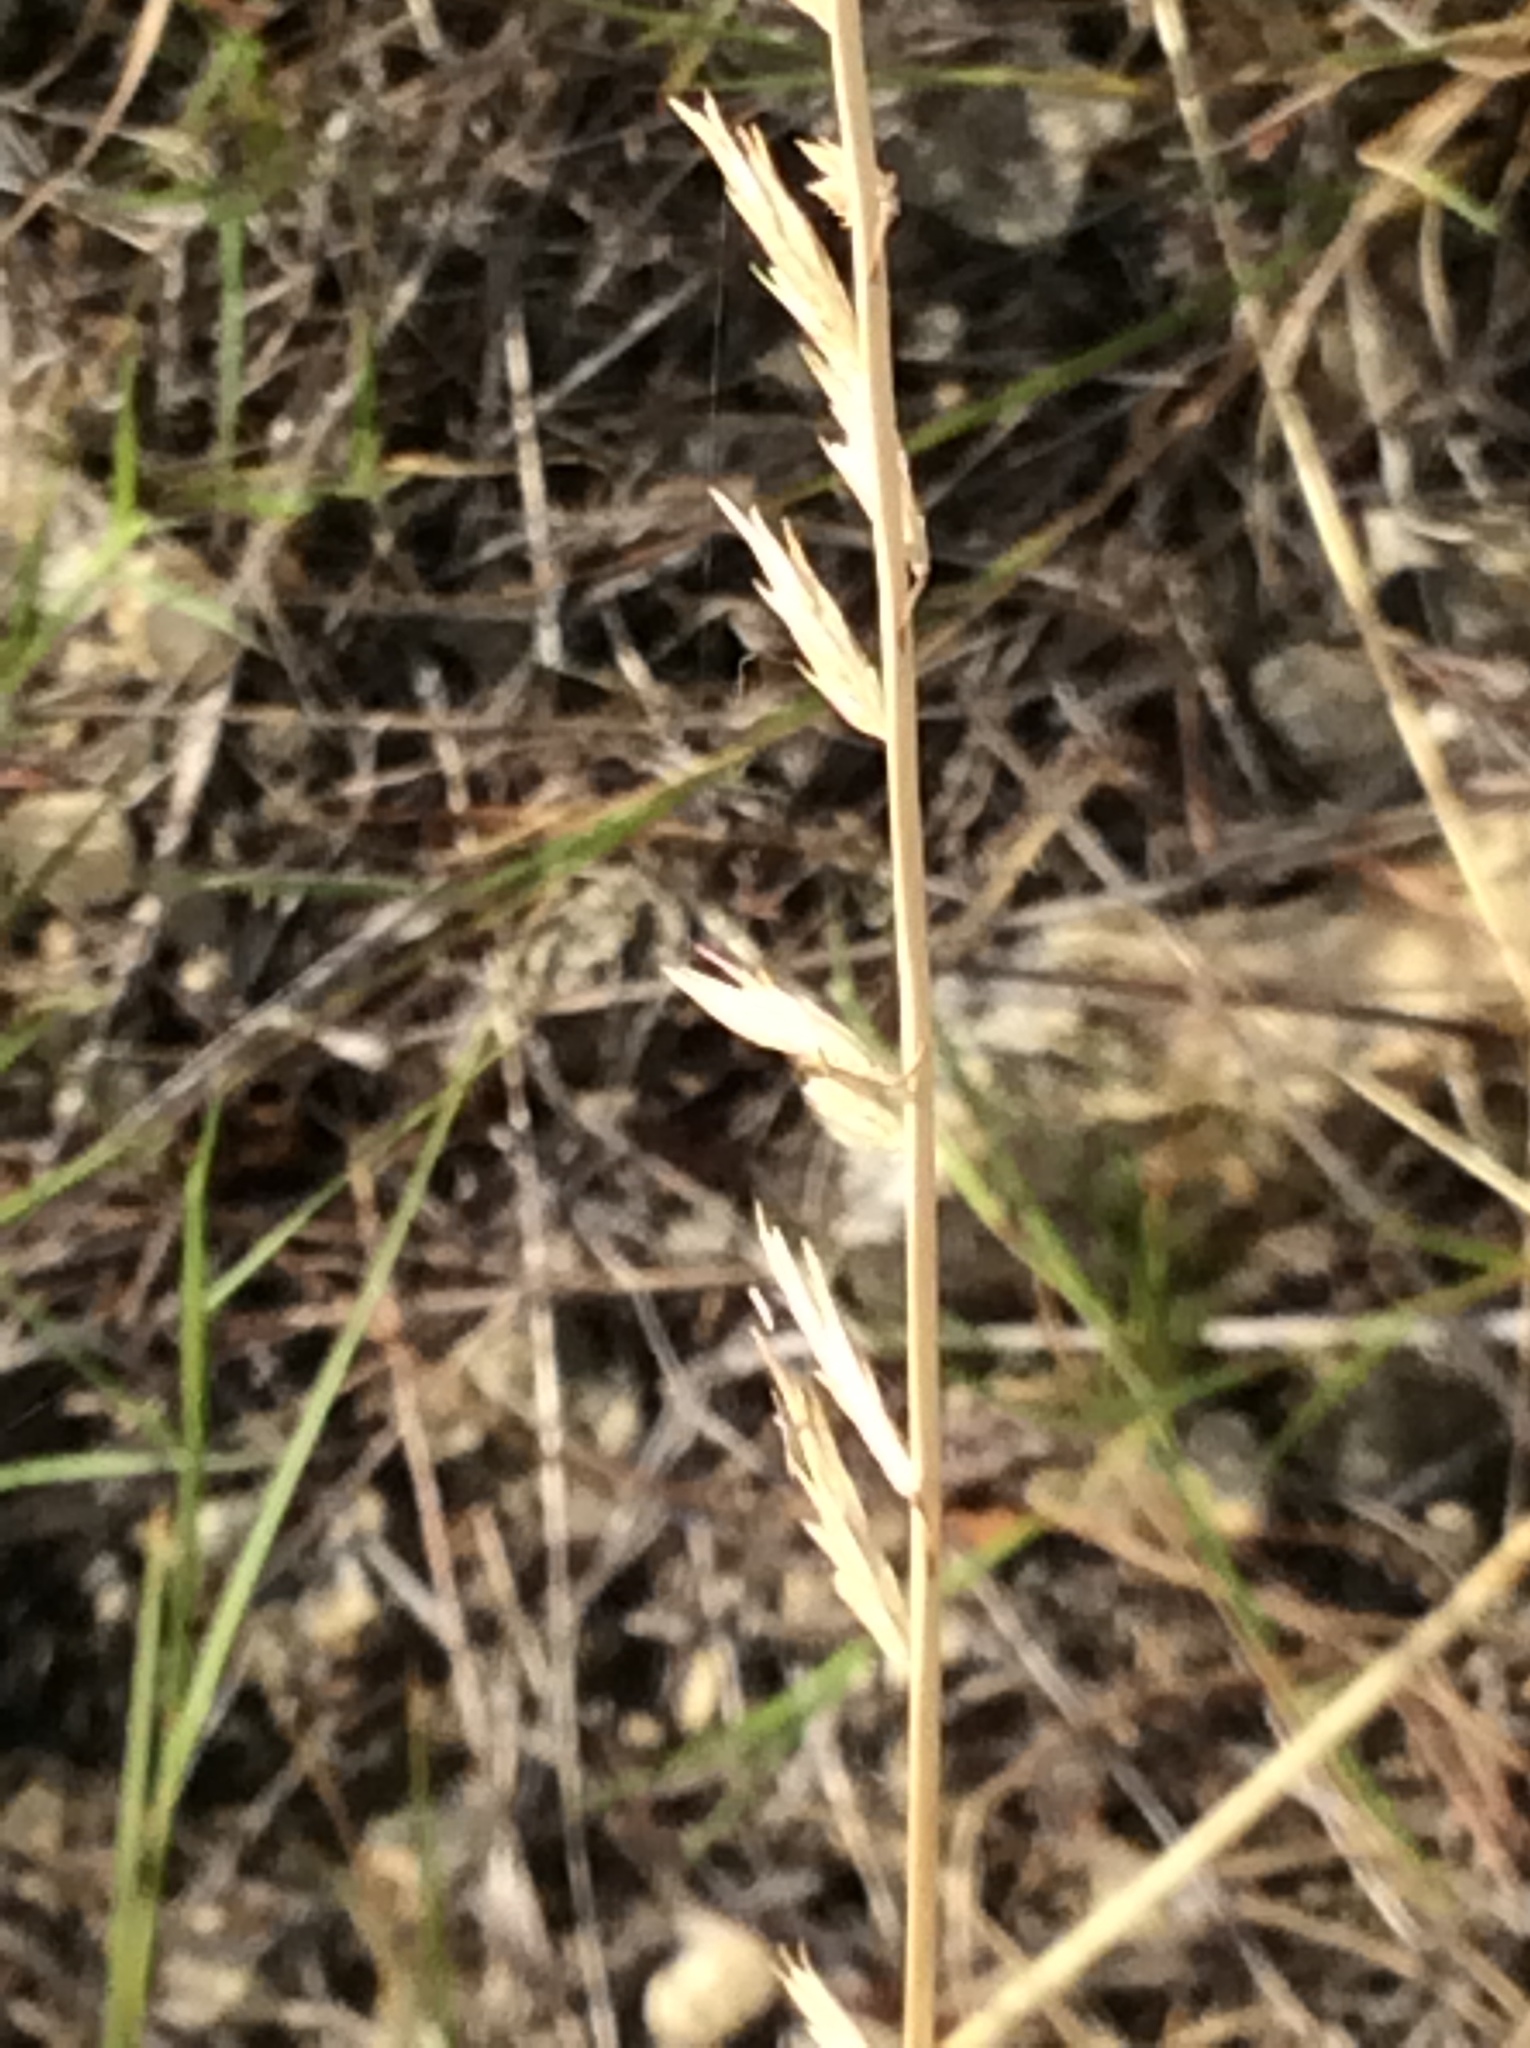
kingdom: Plantae
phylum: Tracheophyta
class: Liliopsida
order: Poales
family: Poaceae
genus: Bouteloua
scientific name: Bouteloua curtipendula
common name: Side-oats grama
